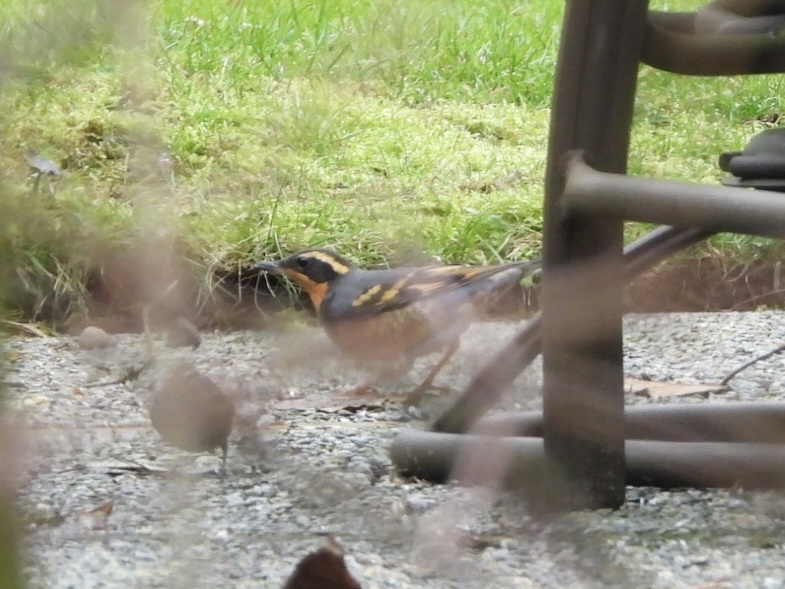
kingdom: Animalia
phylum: Chordata
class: Aves
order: Passeriformes
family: Turdidae
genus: Ixoreus
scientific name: Ixoreus naevius
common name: Varied thrush
